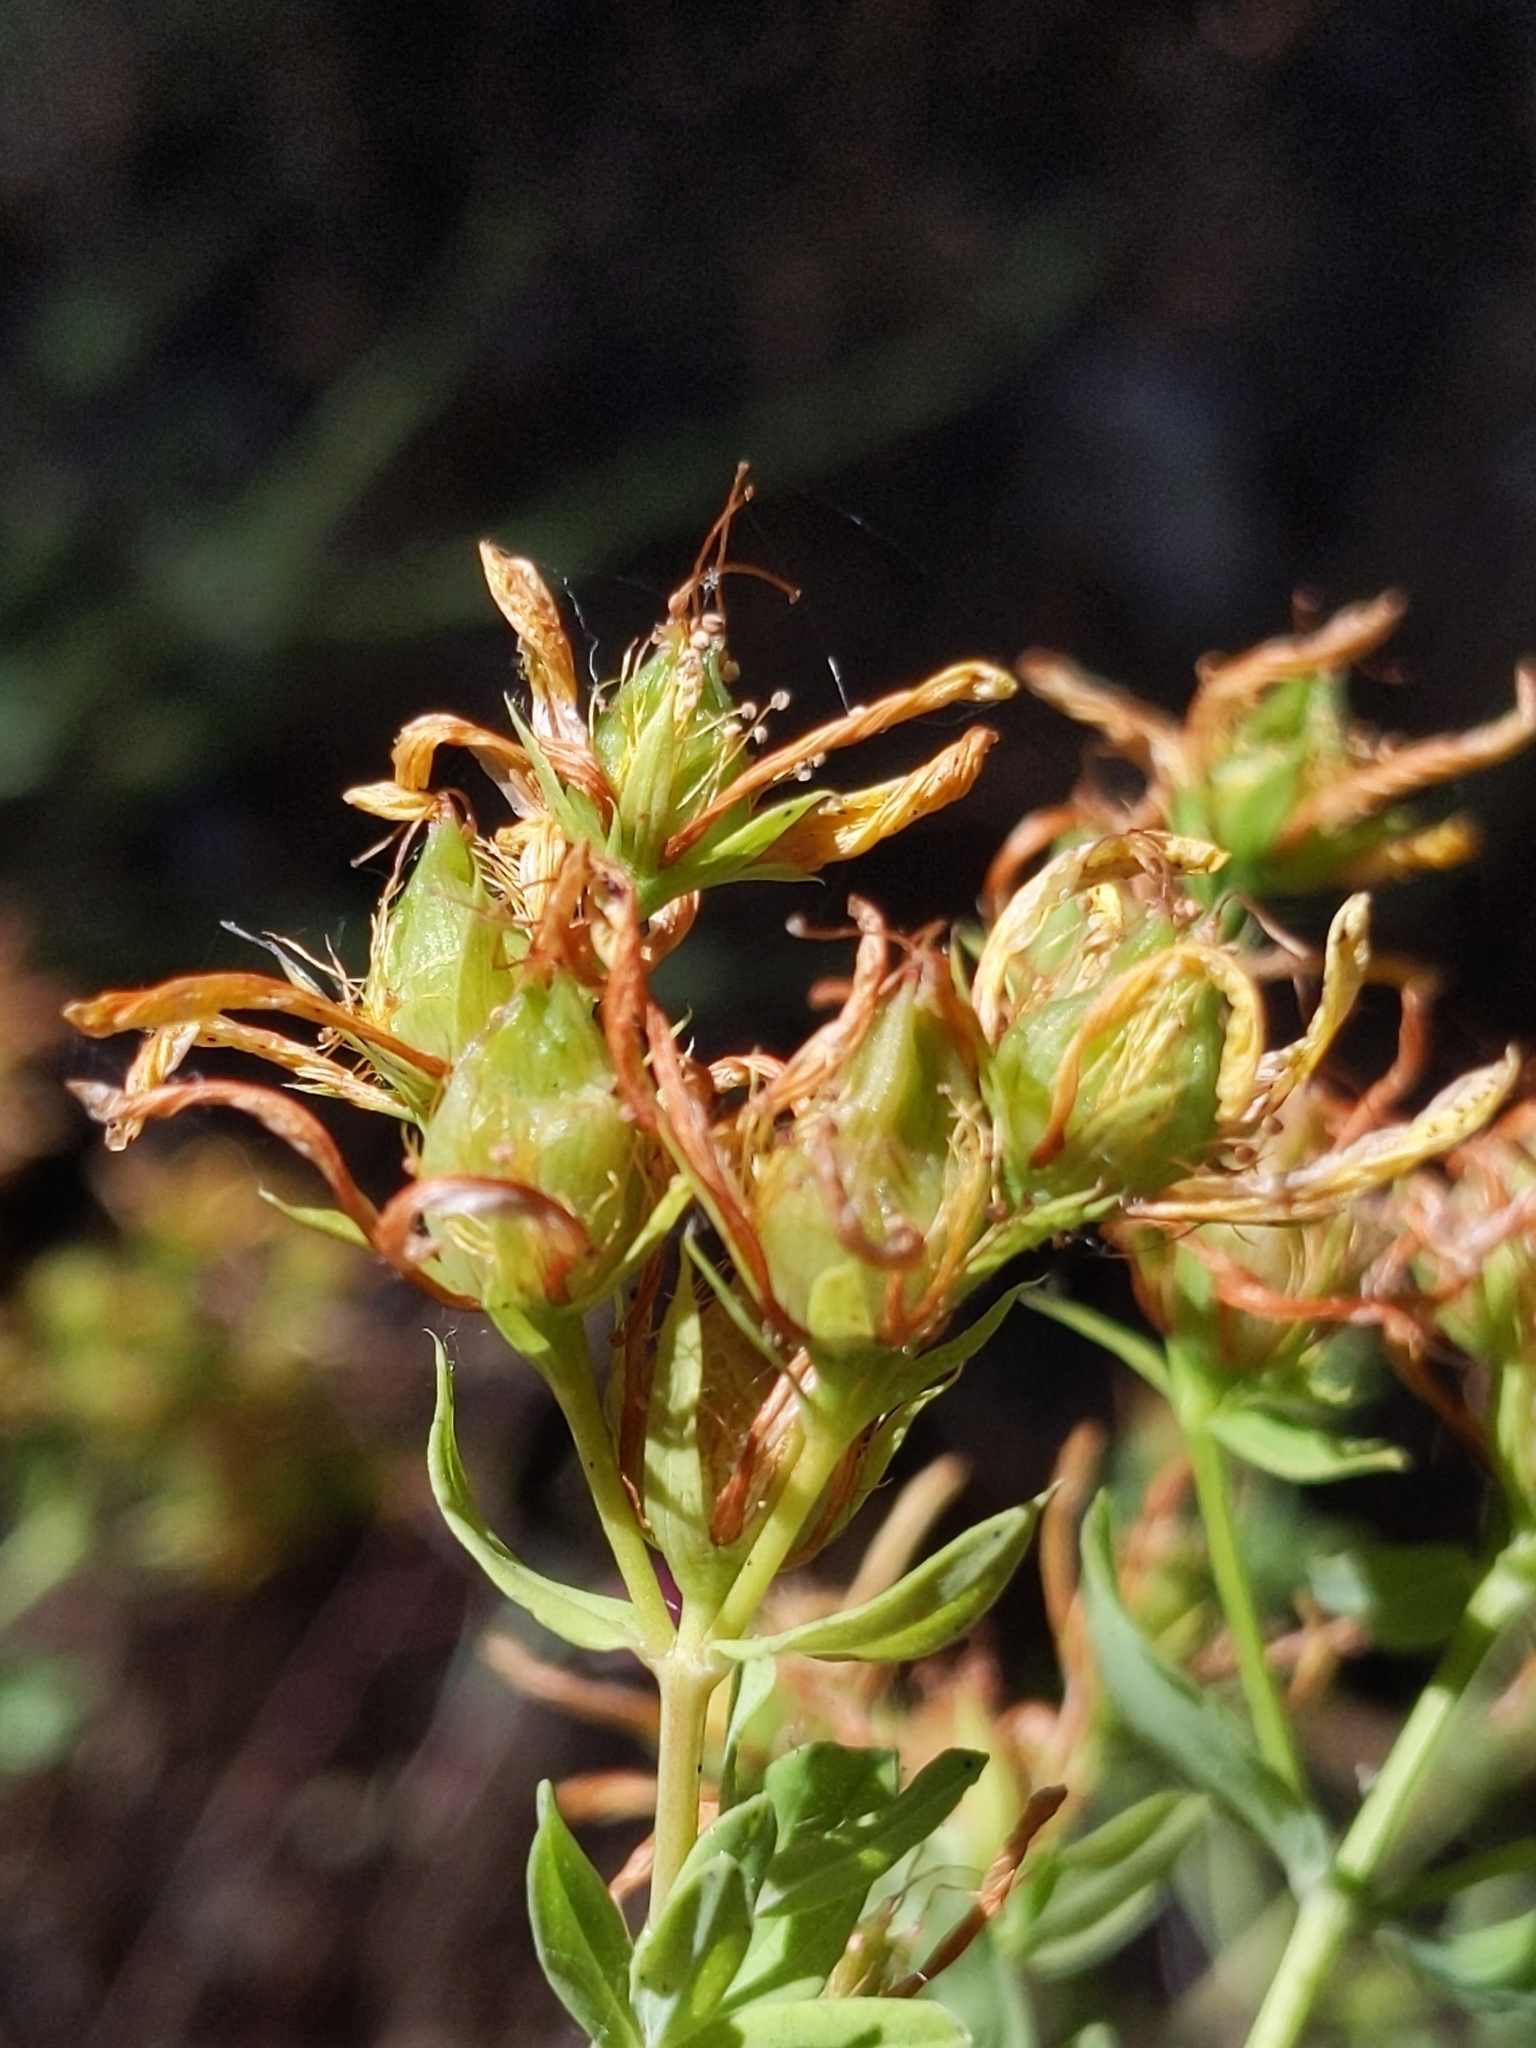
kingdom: Plantae
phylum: Tracheophyta
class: Magnoliopsida
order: Malpighiales
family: Hypericaceae
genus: Hypericum
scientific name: Hypericum perforatum
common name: Common st. johnswort
